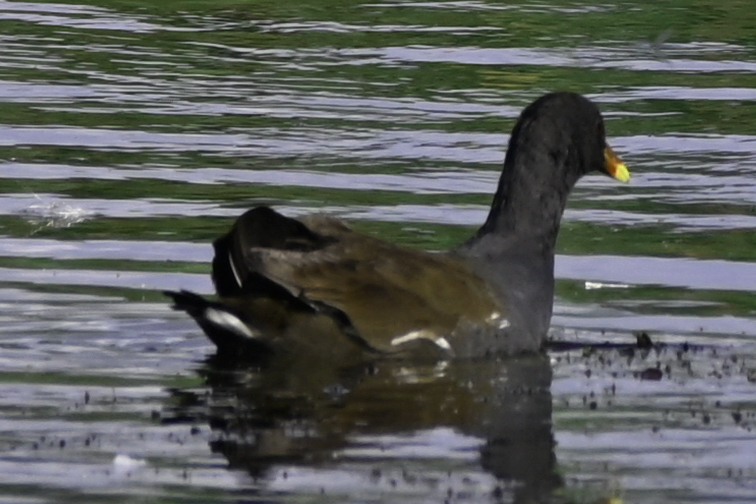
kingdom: Animalia
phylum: Chordata
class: Aves
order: Gruiformes
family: Rallidae
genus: Gallinula
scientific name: Gallinula chloropus
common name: Common moorhen
